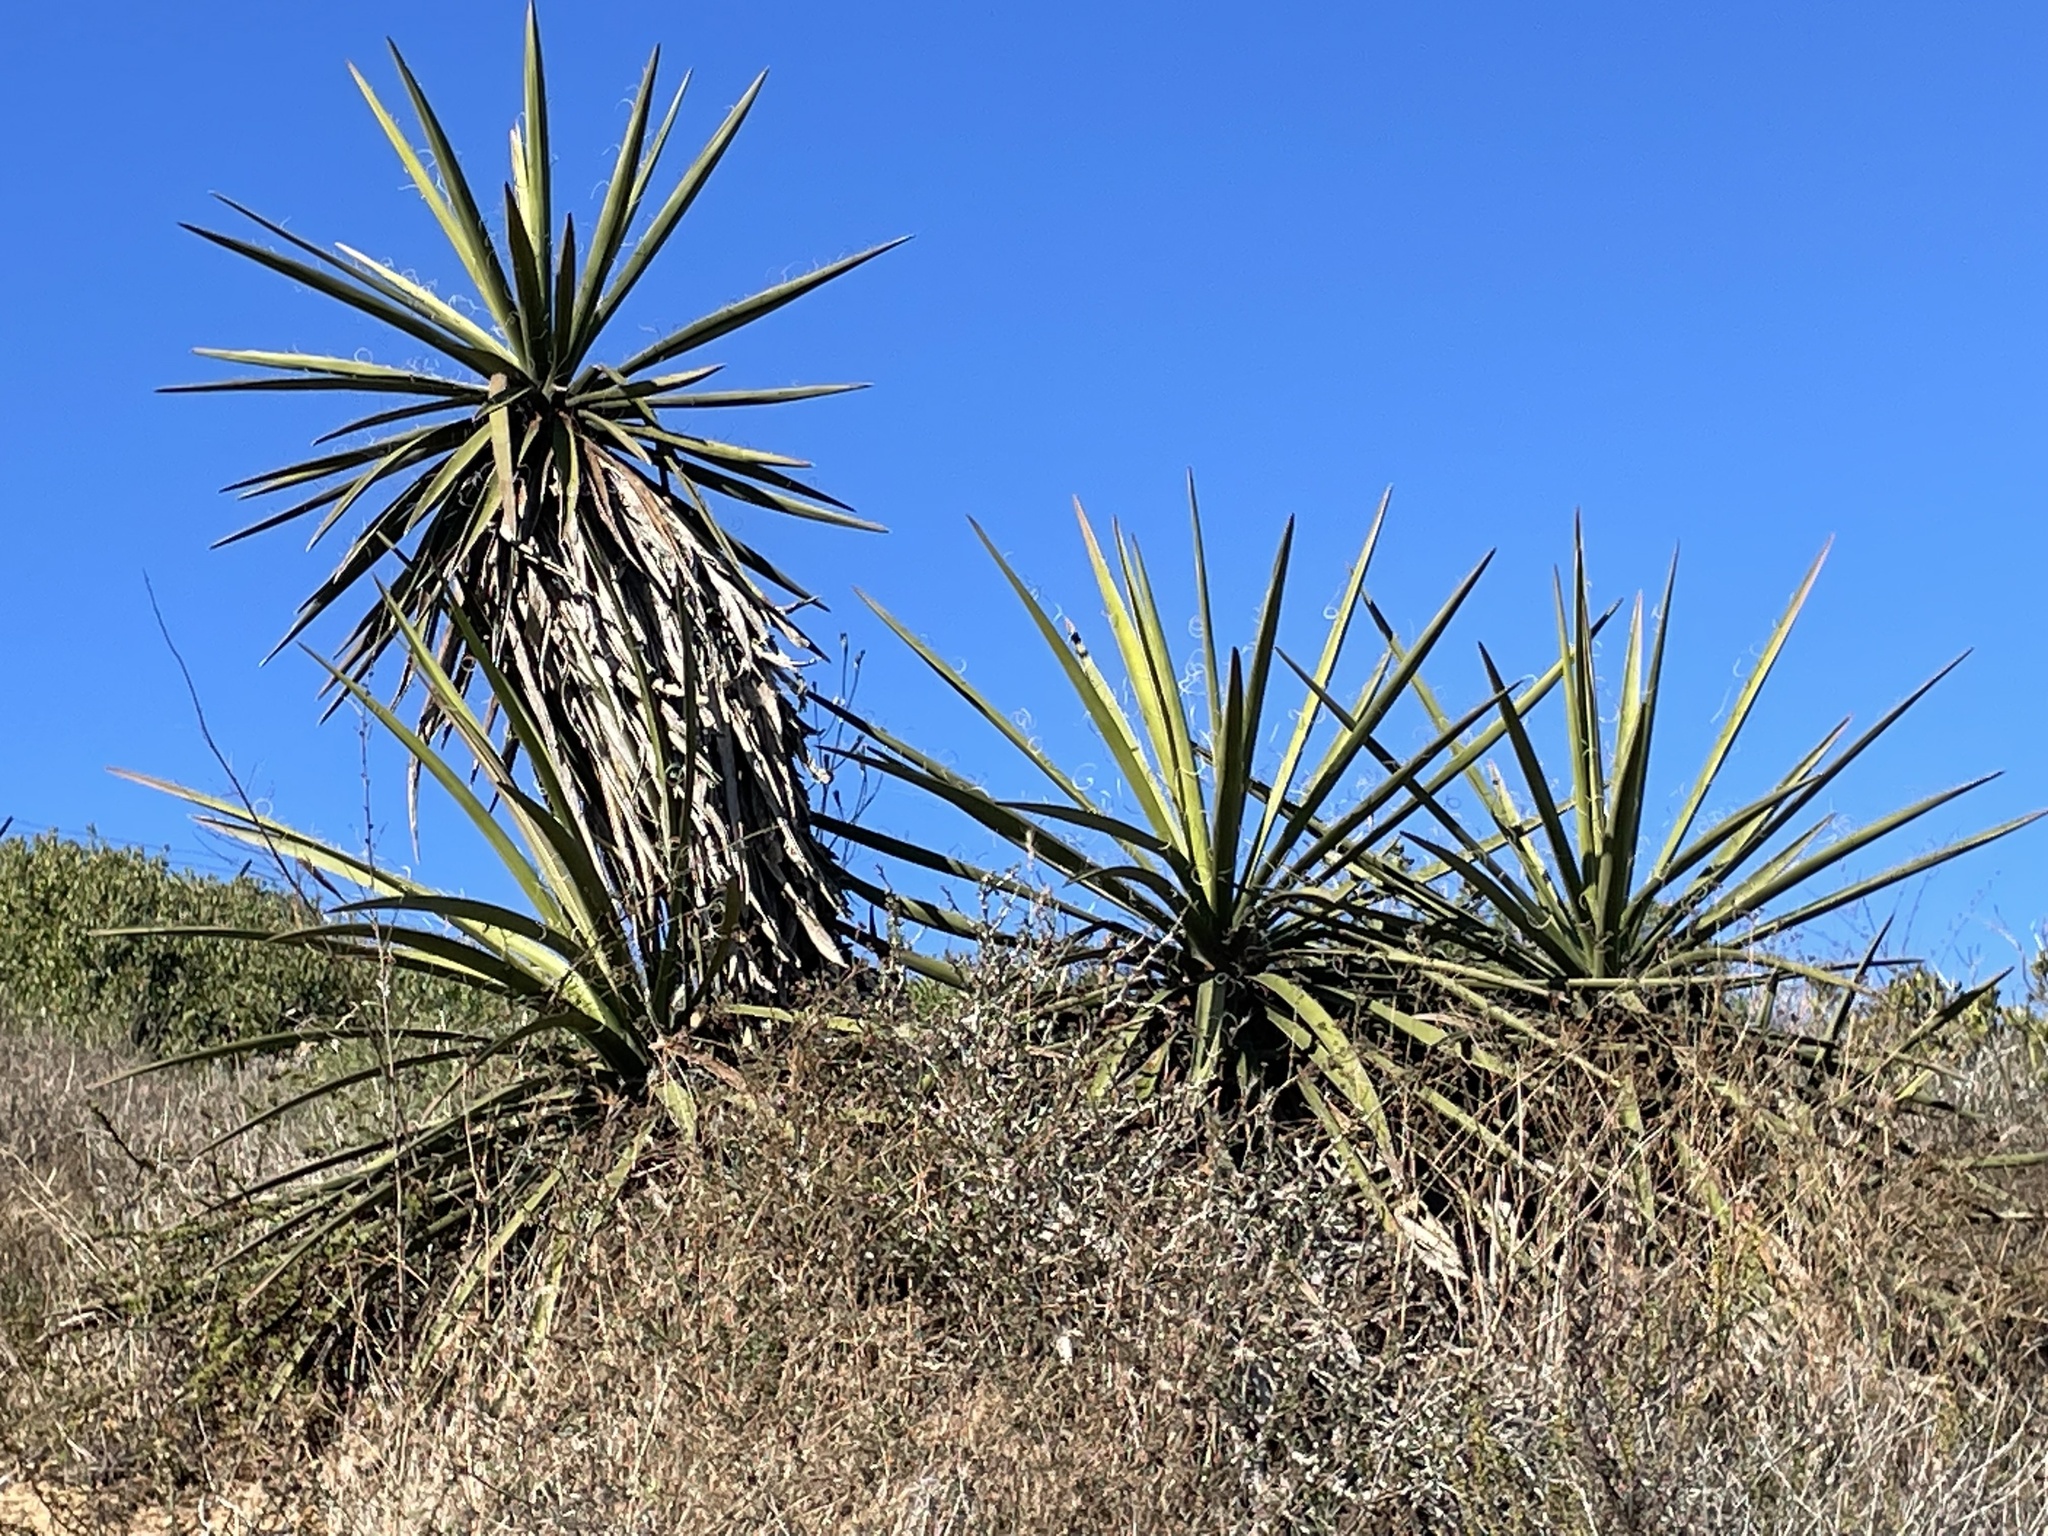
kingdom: Plantae
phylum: Tracheophyta
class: Liliopsida
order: Asparagales
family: Asparagaceae
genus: Yucca
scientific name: Yucca schidigera
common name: Mojave yucca
